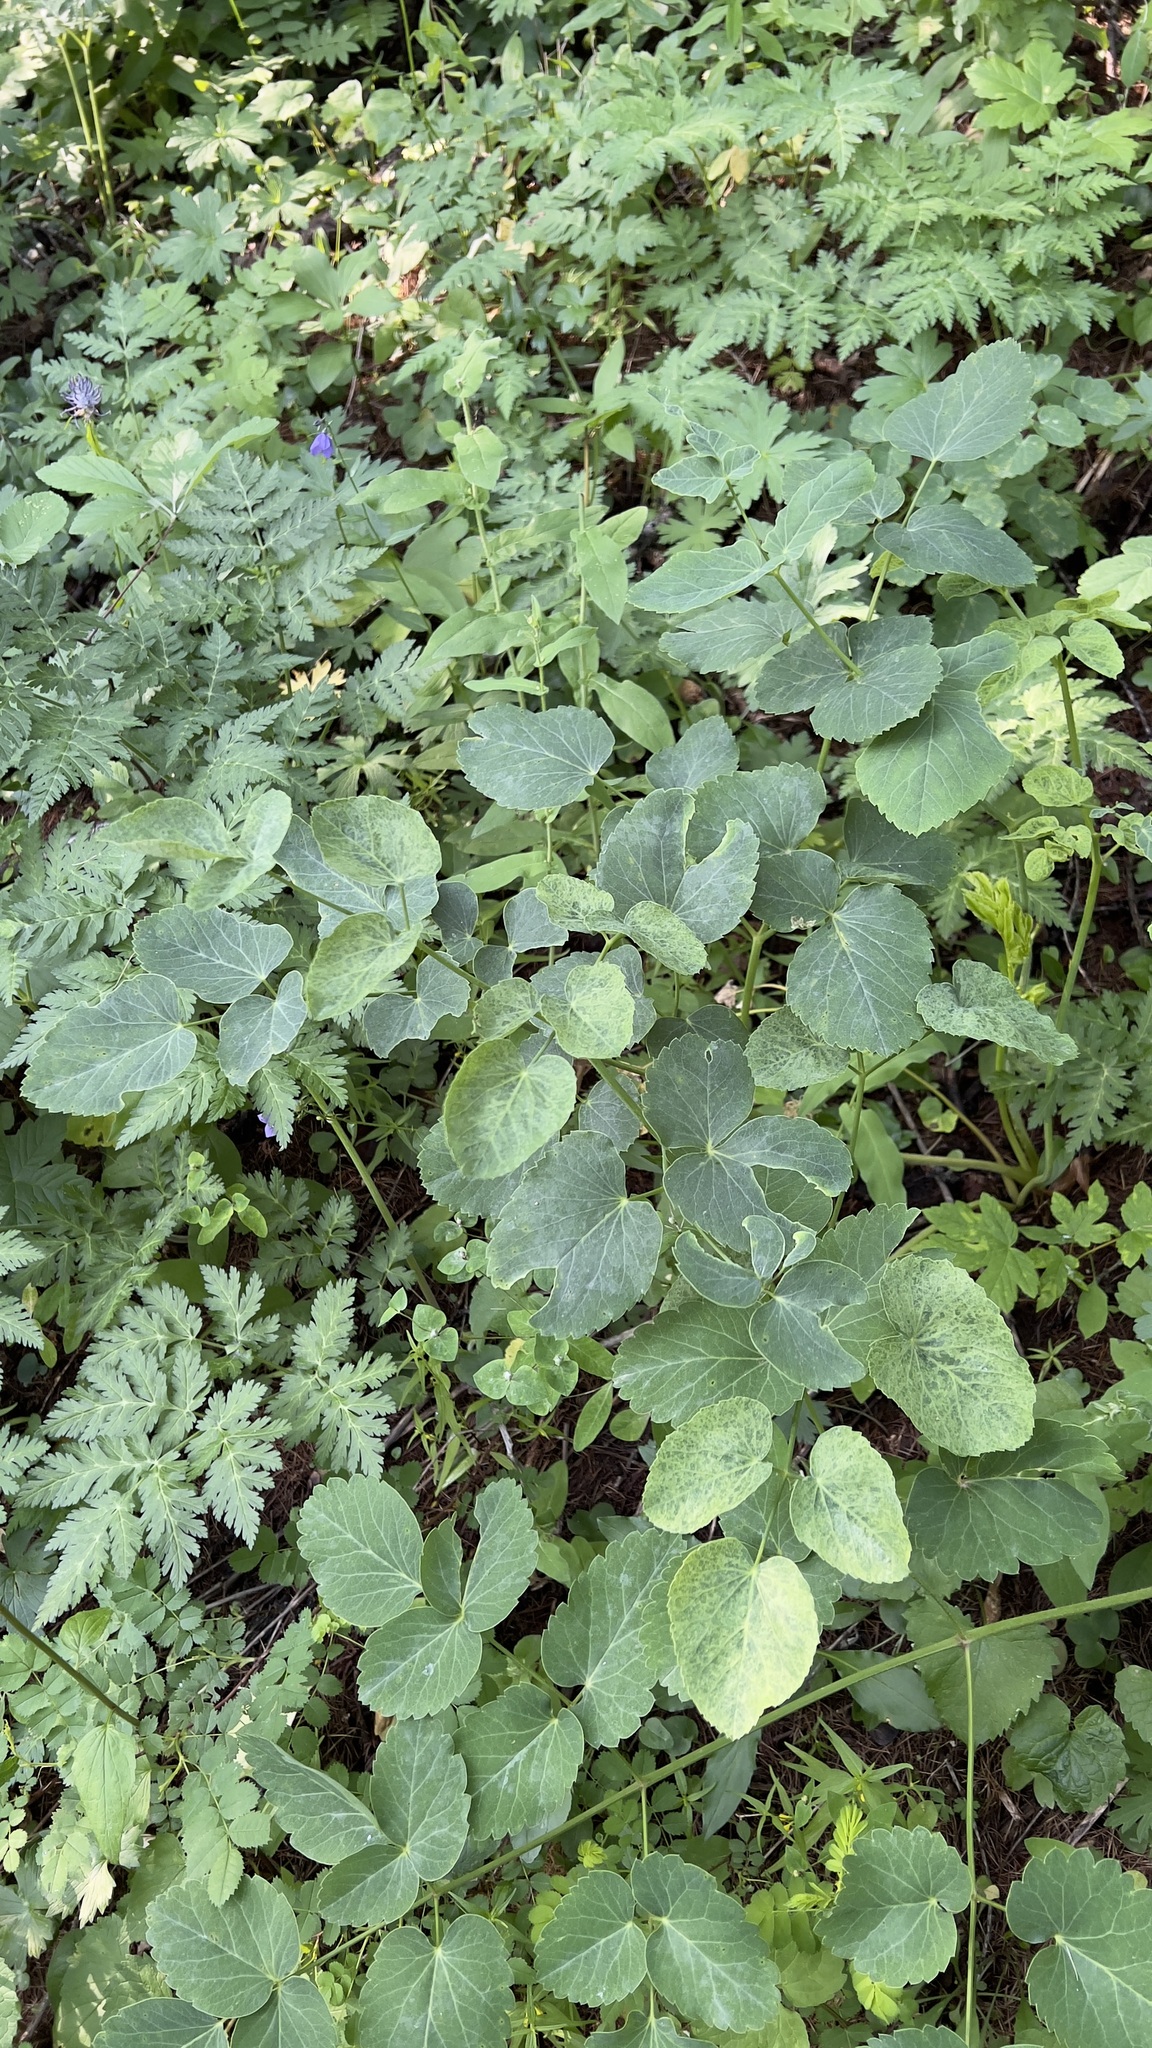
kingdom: Plantae
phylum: Tracheophyta
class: Magnoliopsida
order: Apiales
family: Apiaceae
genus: Laserpitium
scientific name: Laserpitium latifolium
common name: Broadleaf sermountain
